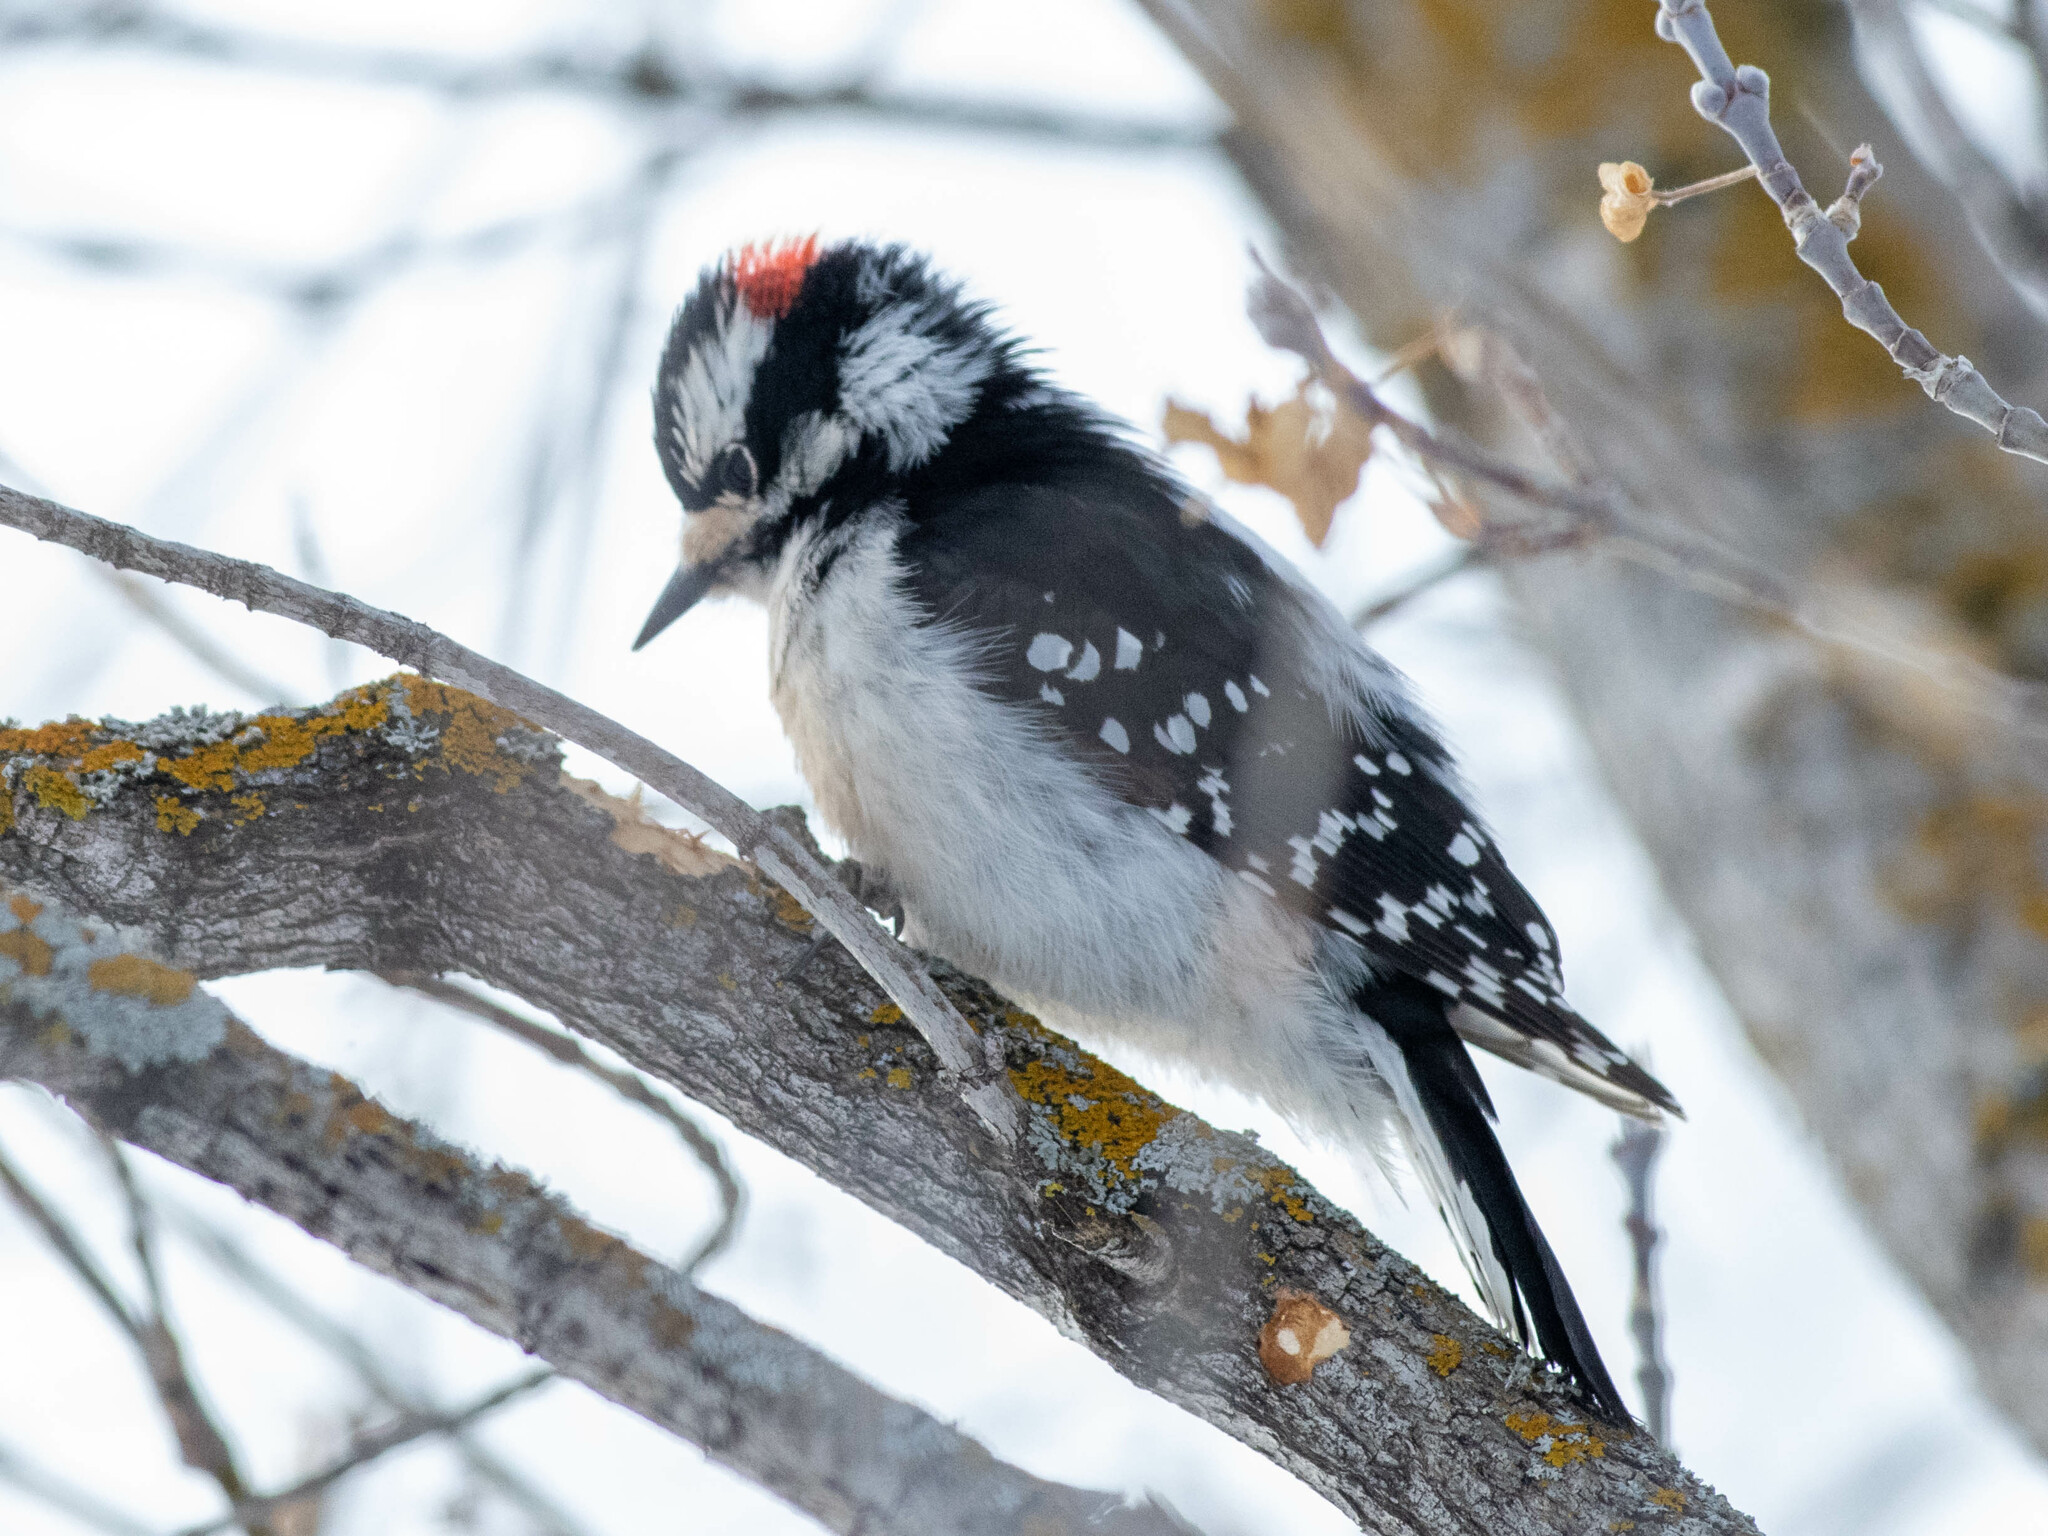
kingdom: Animalia
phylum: Chordata
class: Aves
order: Piciformes
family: Picidae
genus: Dryobates
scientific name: Dryobates pubescens
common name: Downy woodpecker
